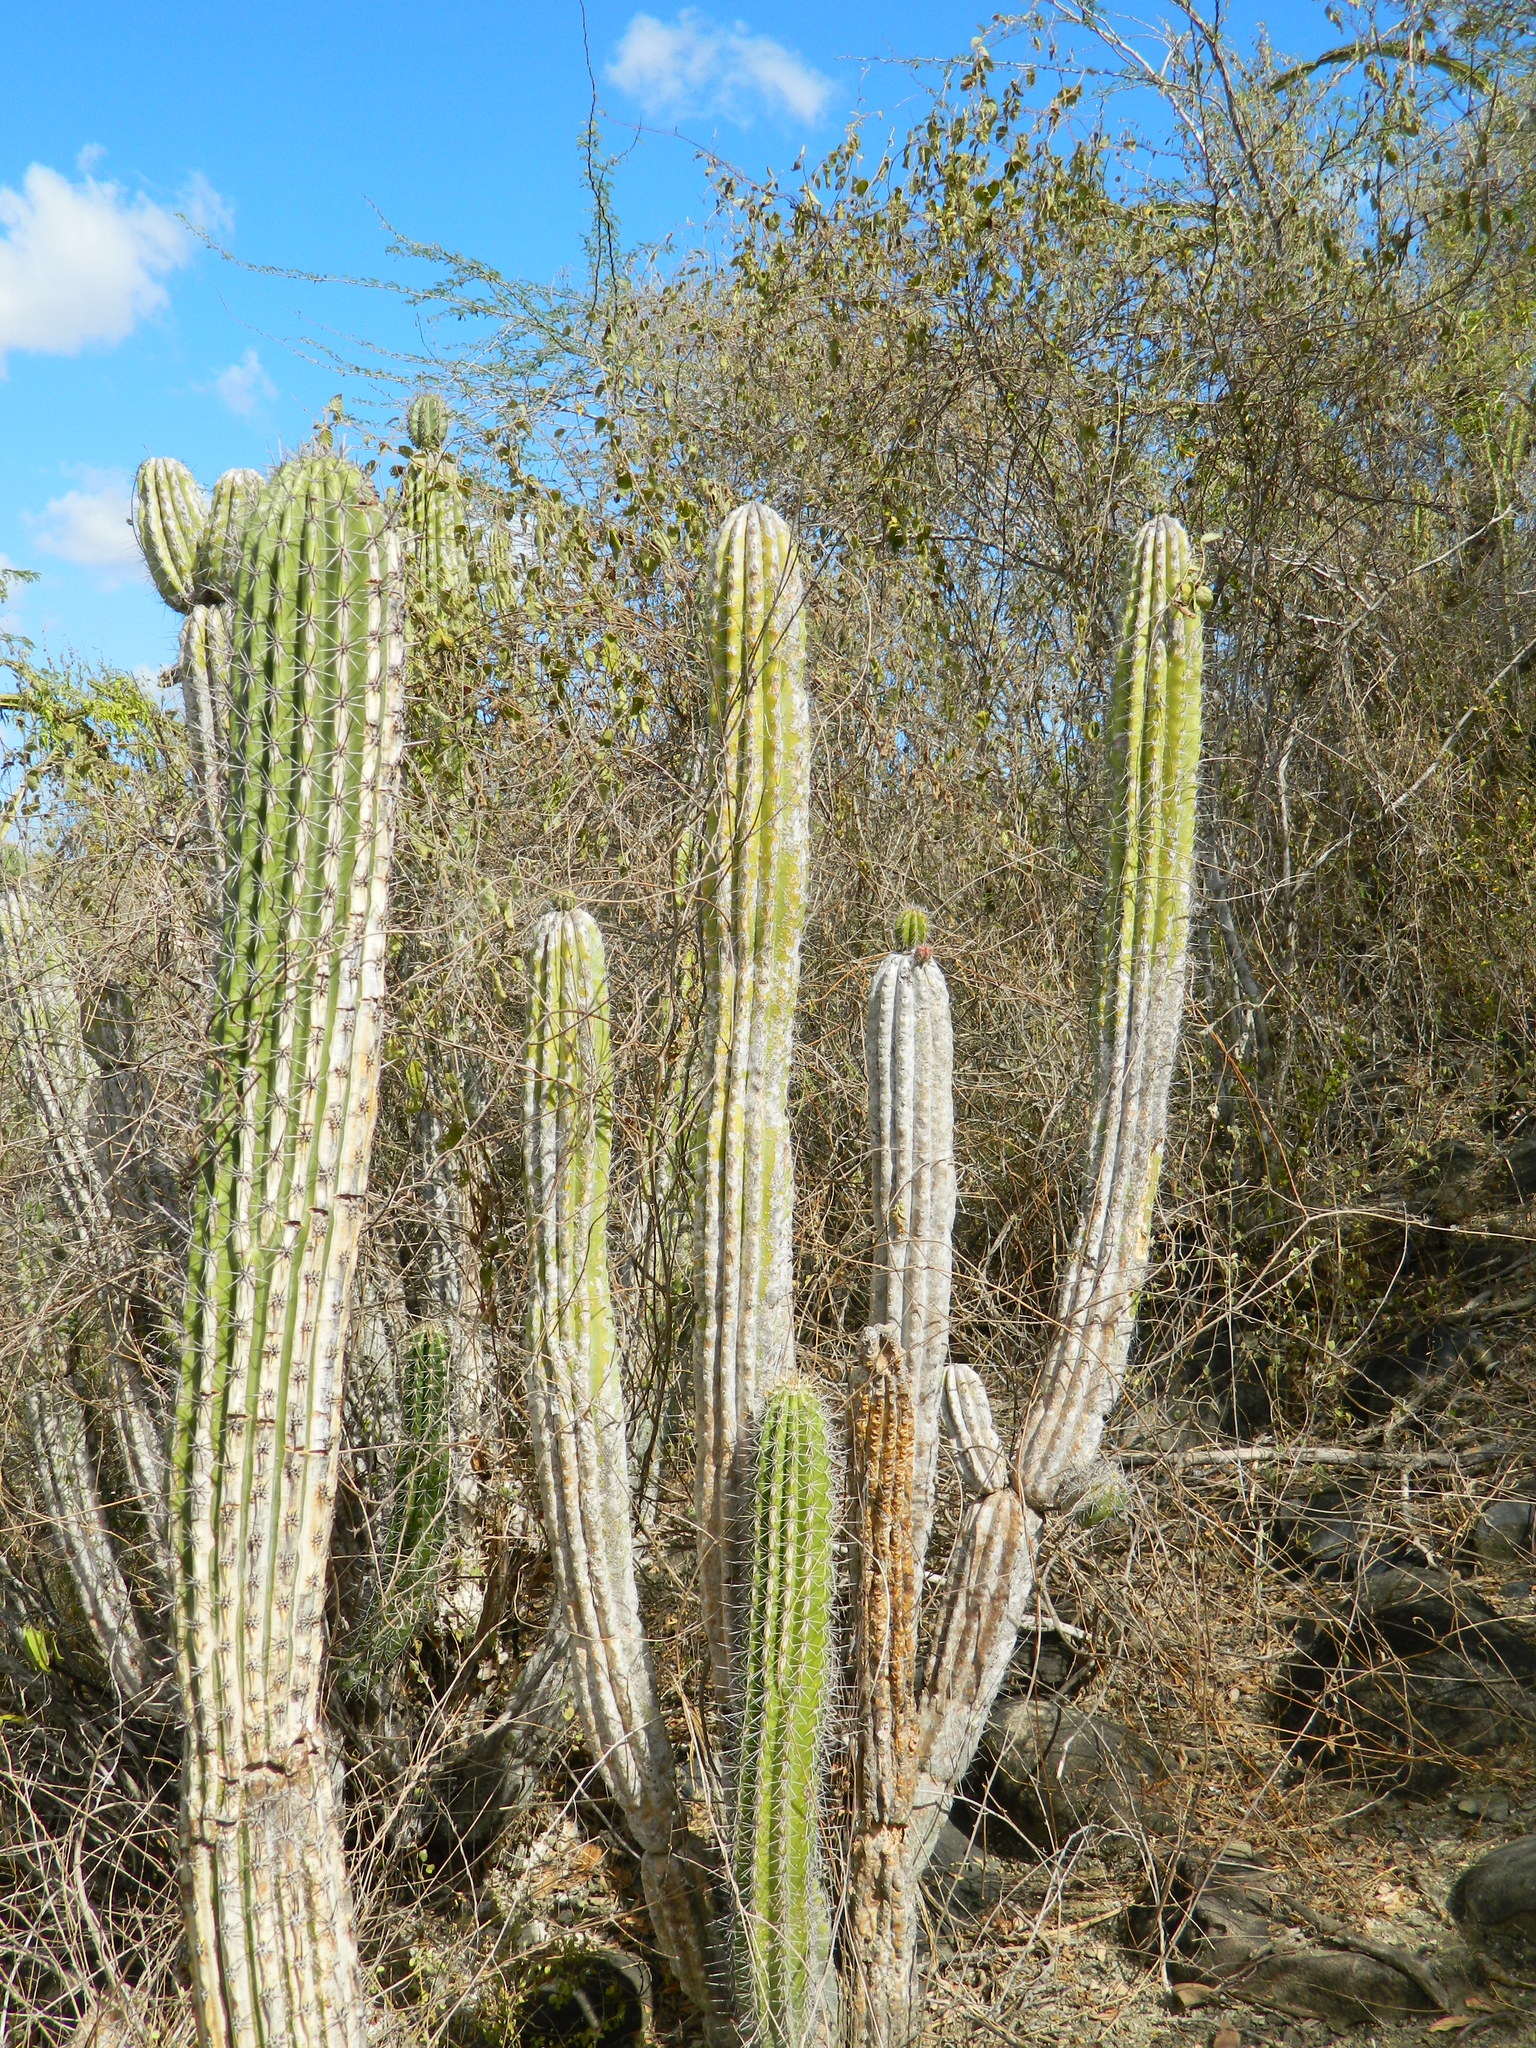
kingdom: Plantae
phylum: Tracheophyta
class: Magnoliopsida
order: Caryophyllales
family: Cactaceae
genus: Pilosocereus
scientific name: Pilosocereus polygonus
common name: Key tree cactus
